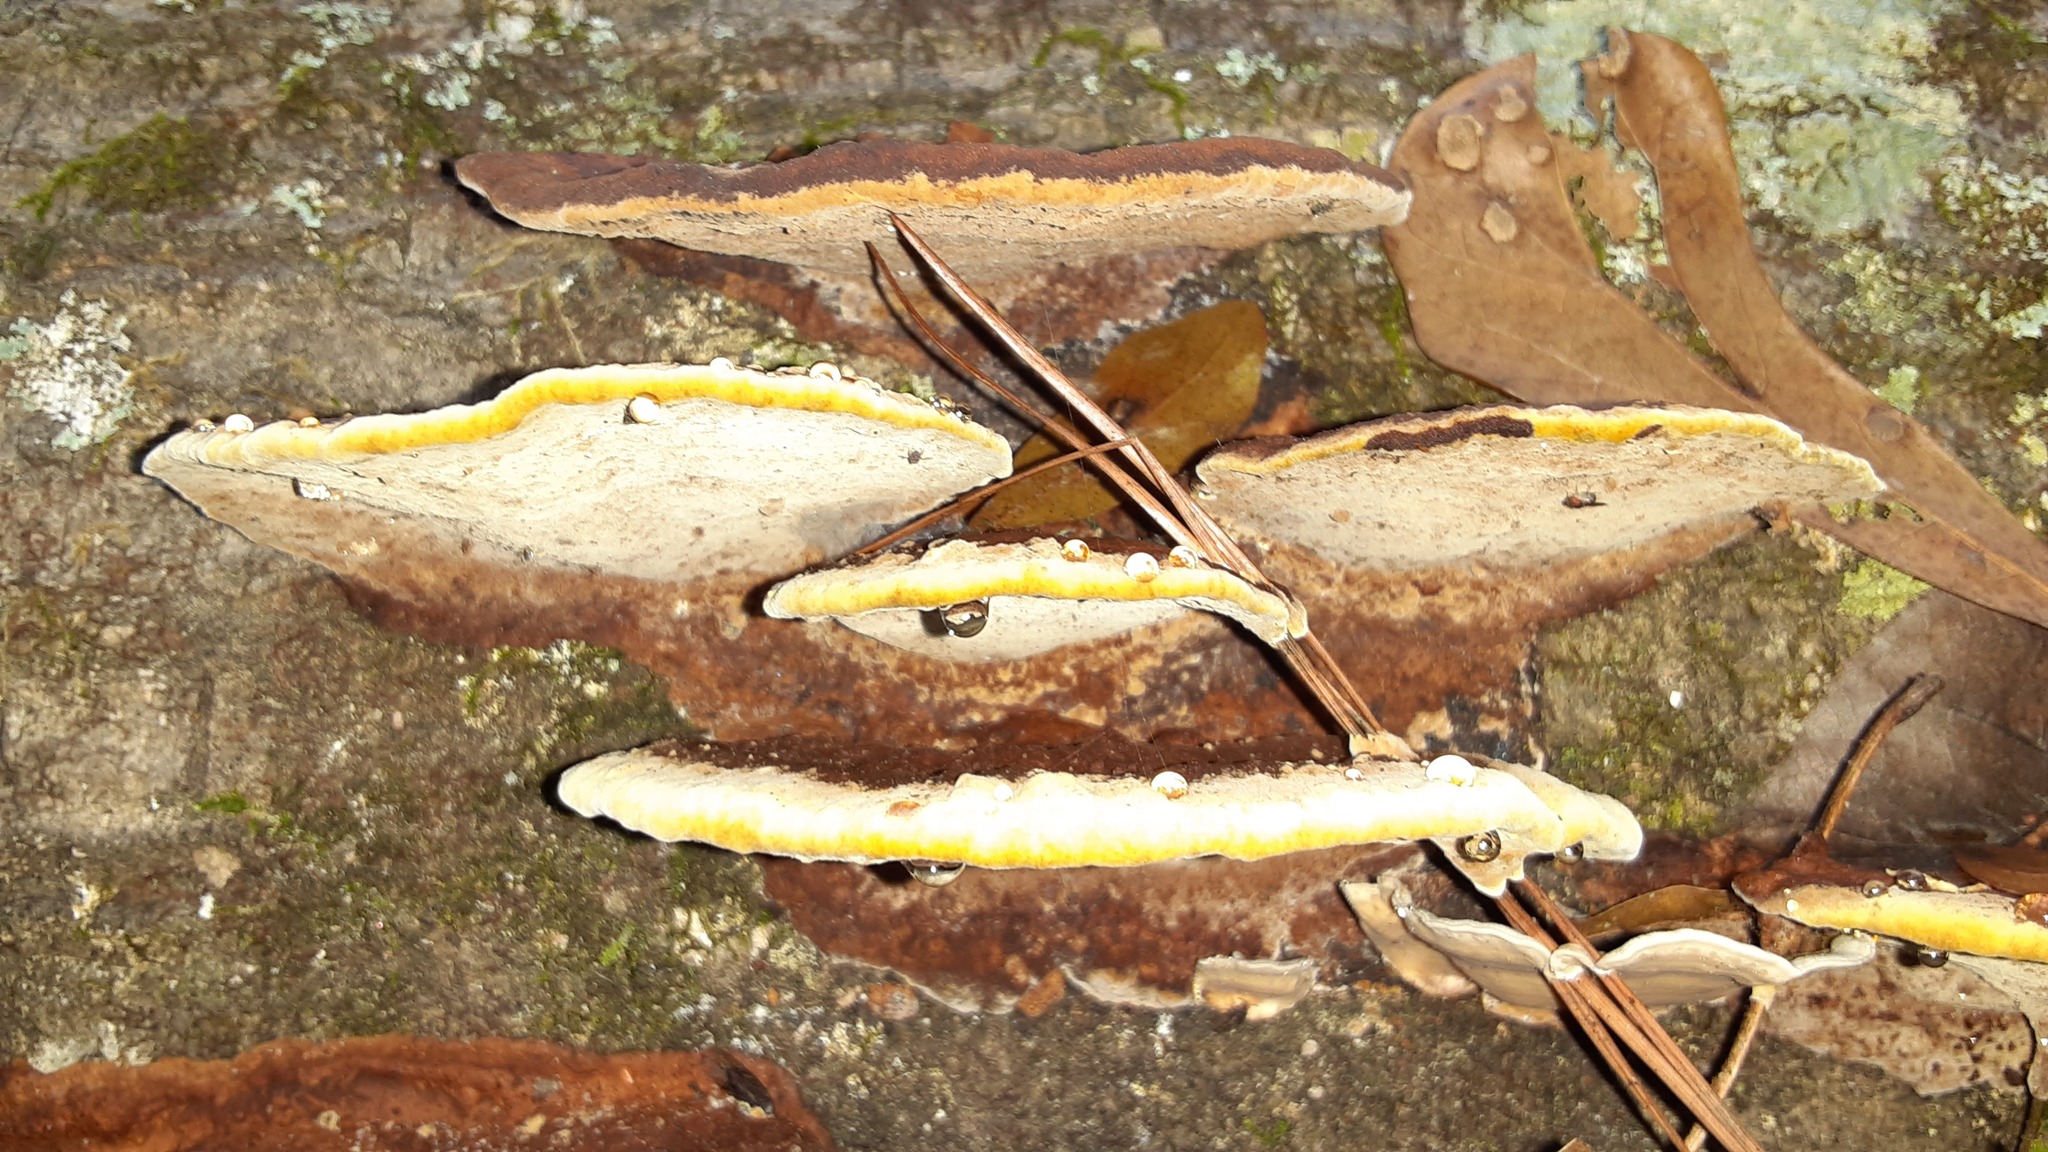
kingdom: Fungi
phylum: Basidiomycota
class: Agaricomycetes
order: Hymenochaetales
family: Hymenochaetaceae
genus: Phellinus
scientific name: Phellinus gilvus
